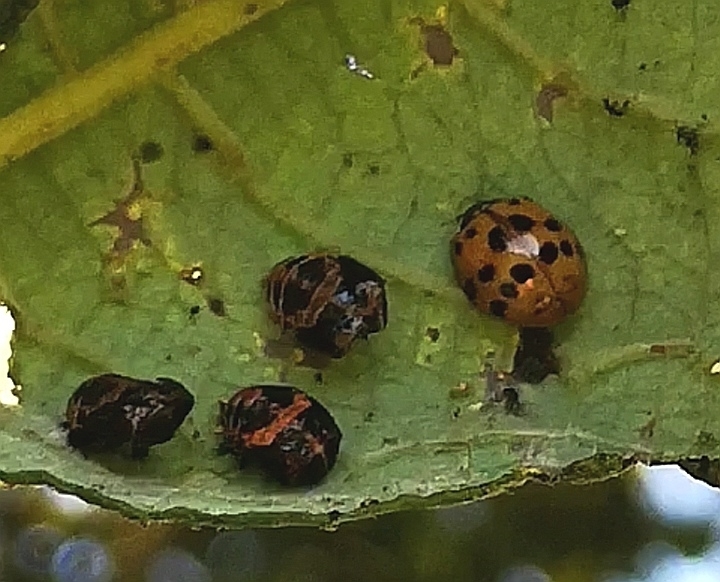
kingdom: Animalia
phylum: Arthropoda
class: Insecta
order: Coleoptera
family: Coccinellidae
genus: Harmonia
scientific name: Harmonia axyridis
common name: Harlequin ladybird
